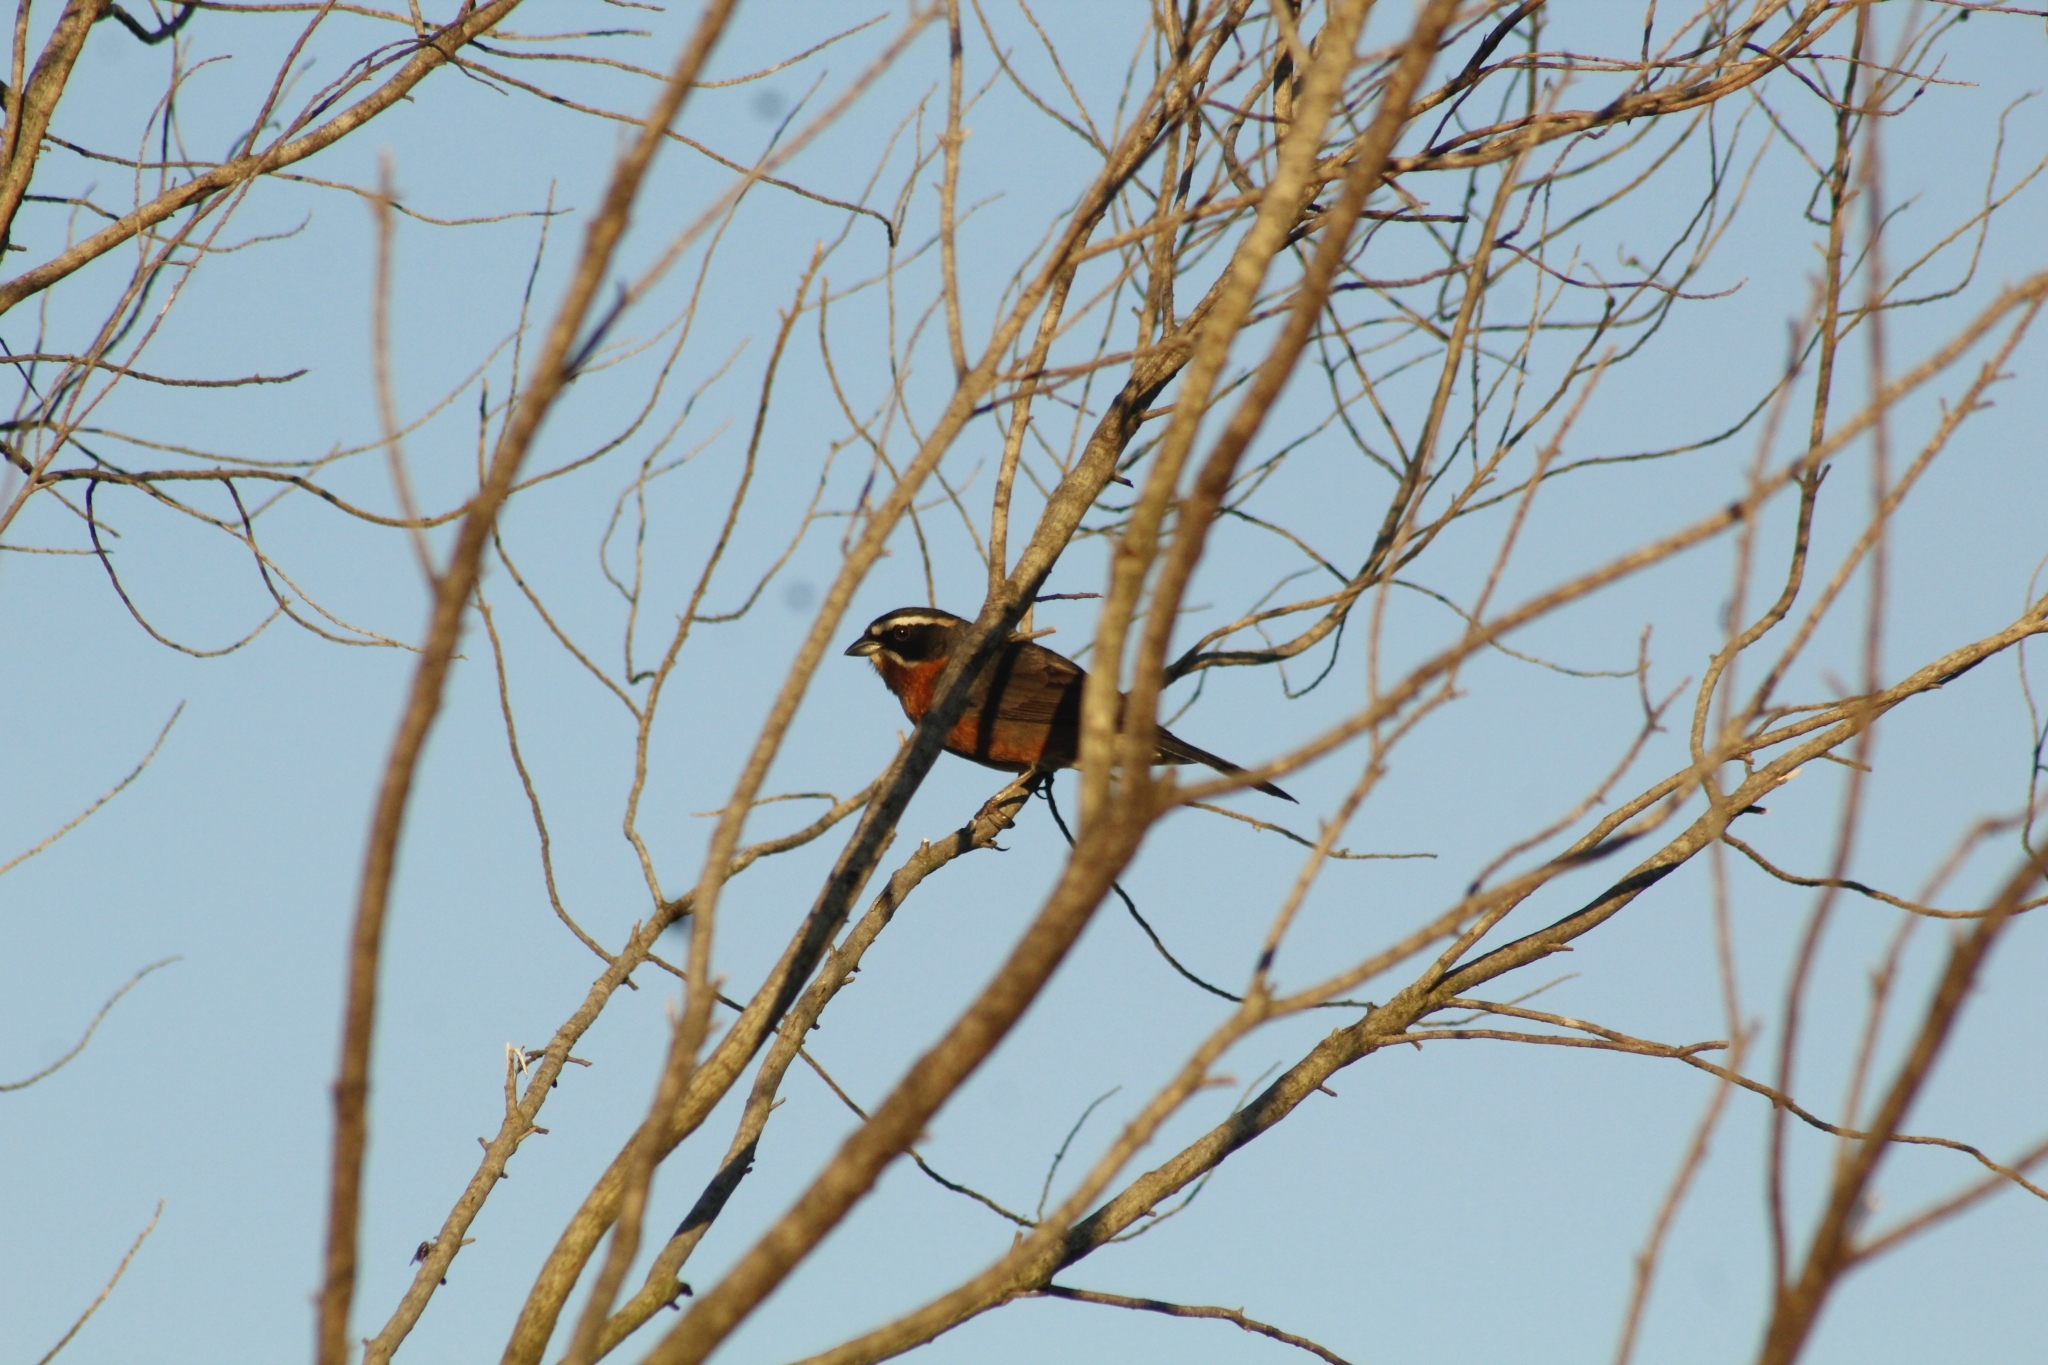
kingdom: Animalia
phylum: Chordata
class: Aves
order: Passeriformes
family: Thraupidae
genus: Poospiza
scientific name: Poospiza nigrorufa
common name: Black-and-rufous warbling finch
